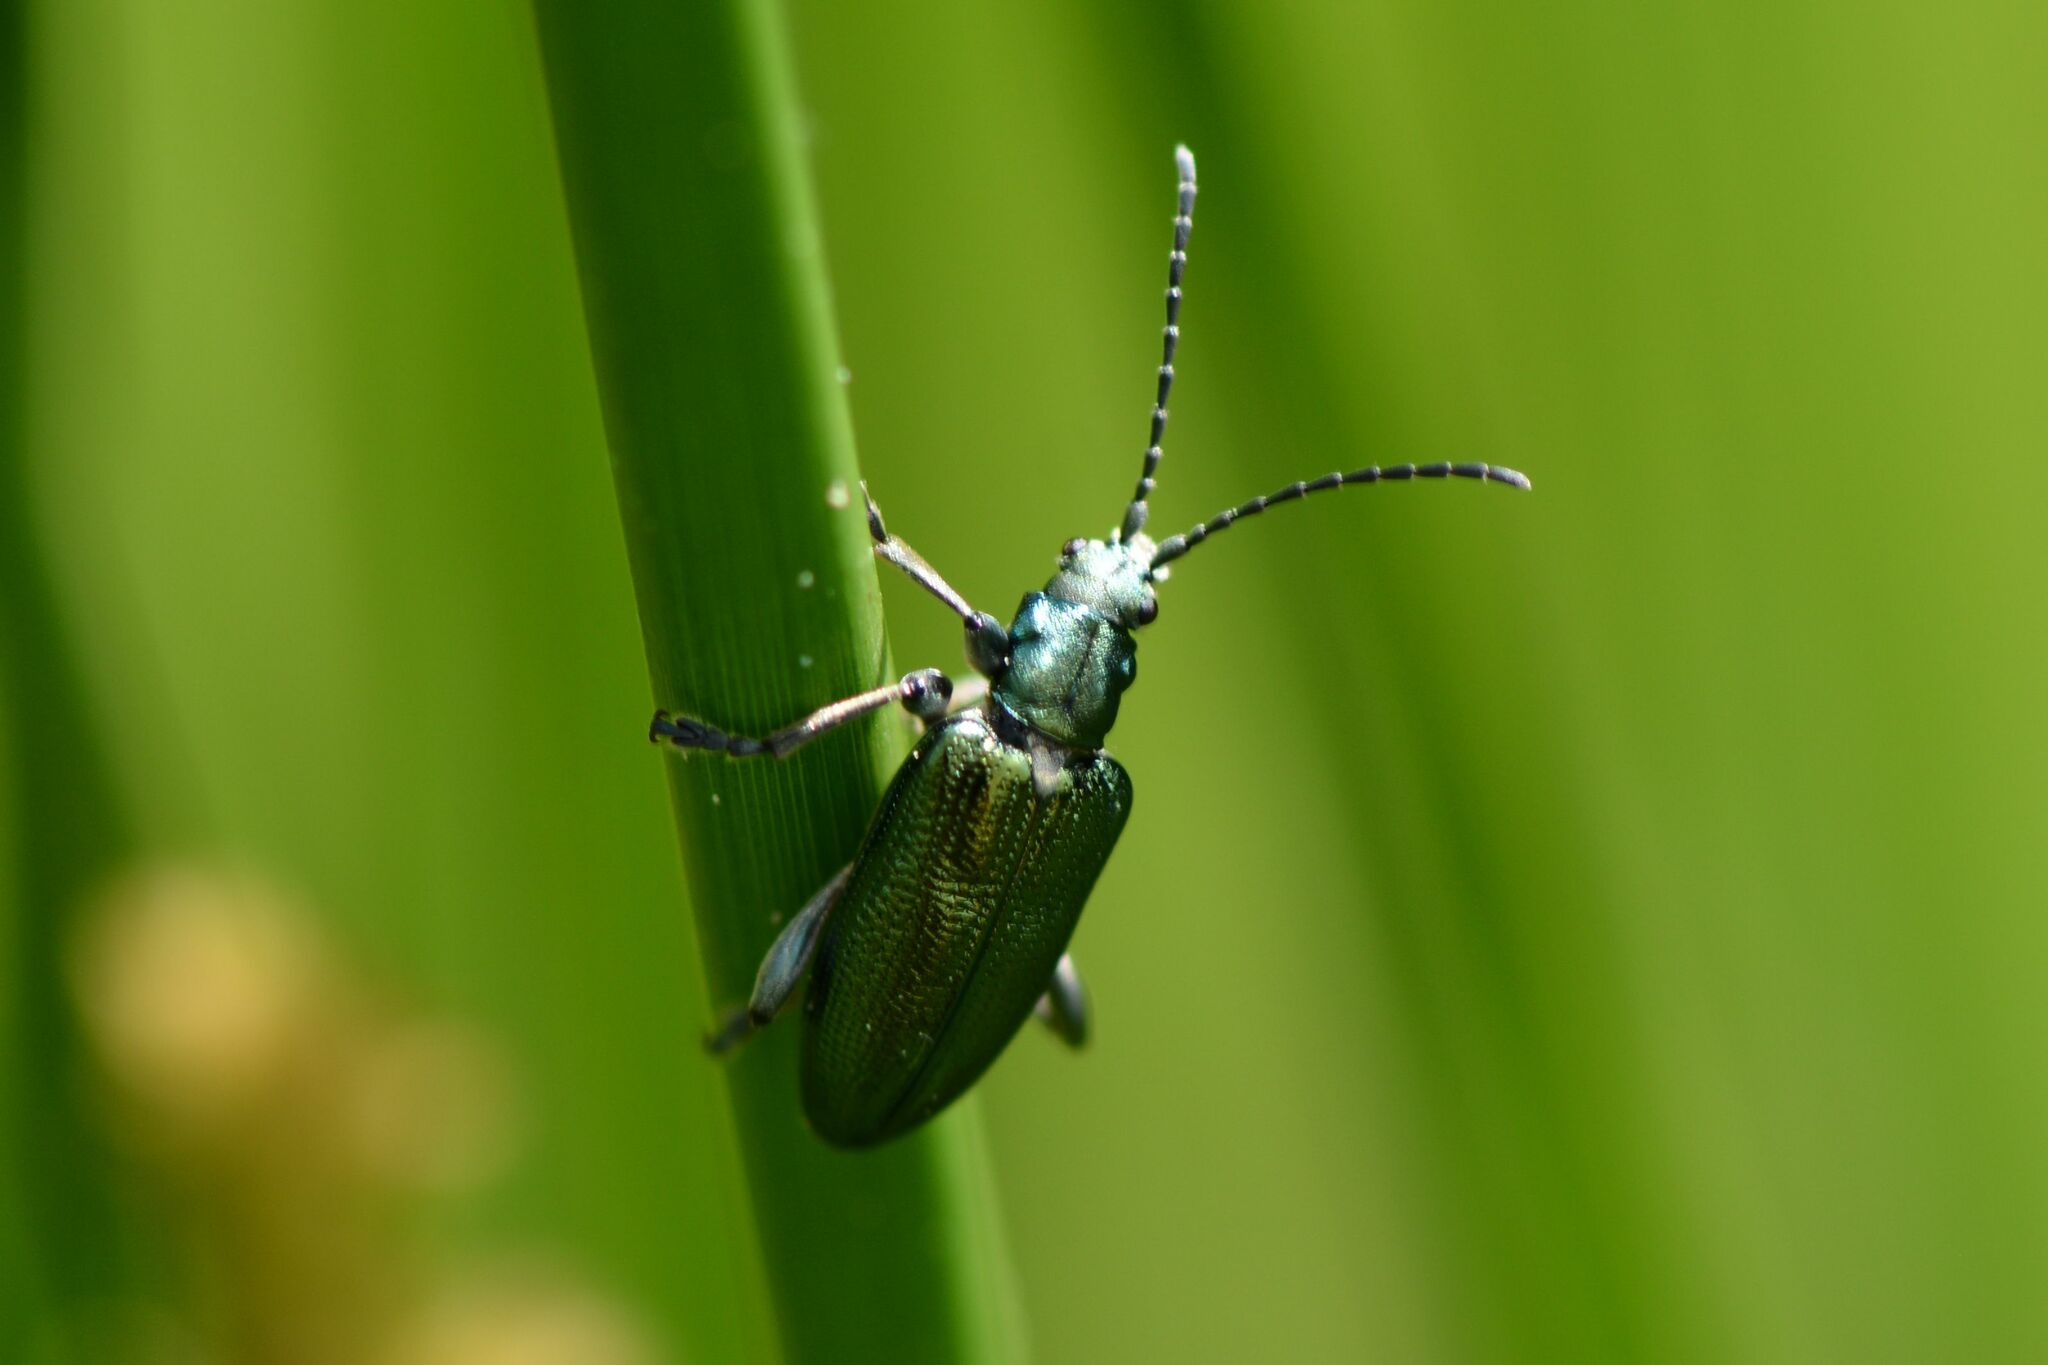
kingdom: Animalia
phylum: Arthropoda
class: Insecta
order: Coleoptera
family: Chrysomelidae
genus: Plateumaris
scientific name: Plateumaris sericea
